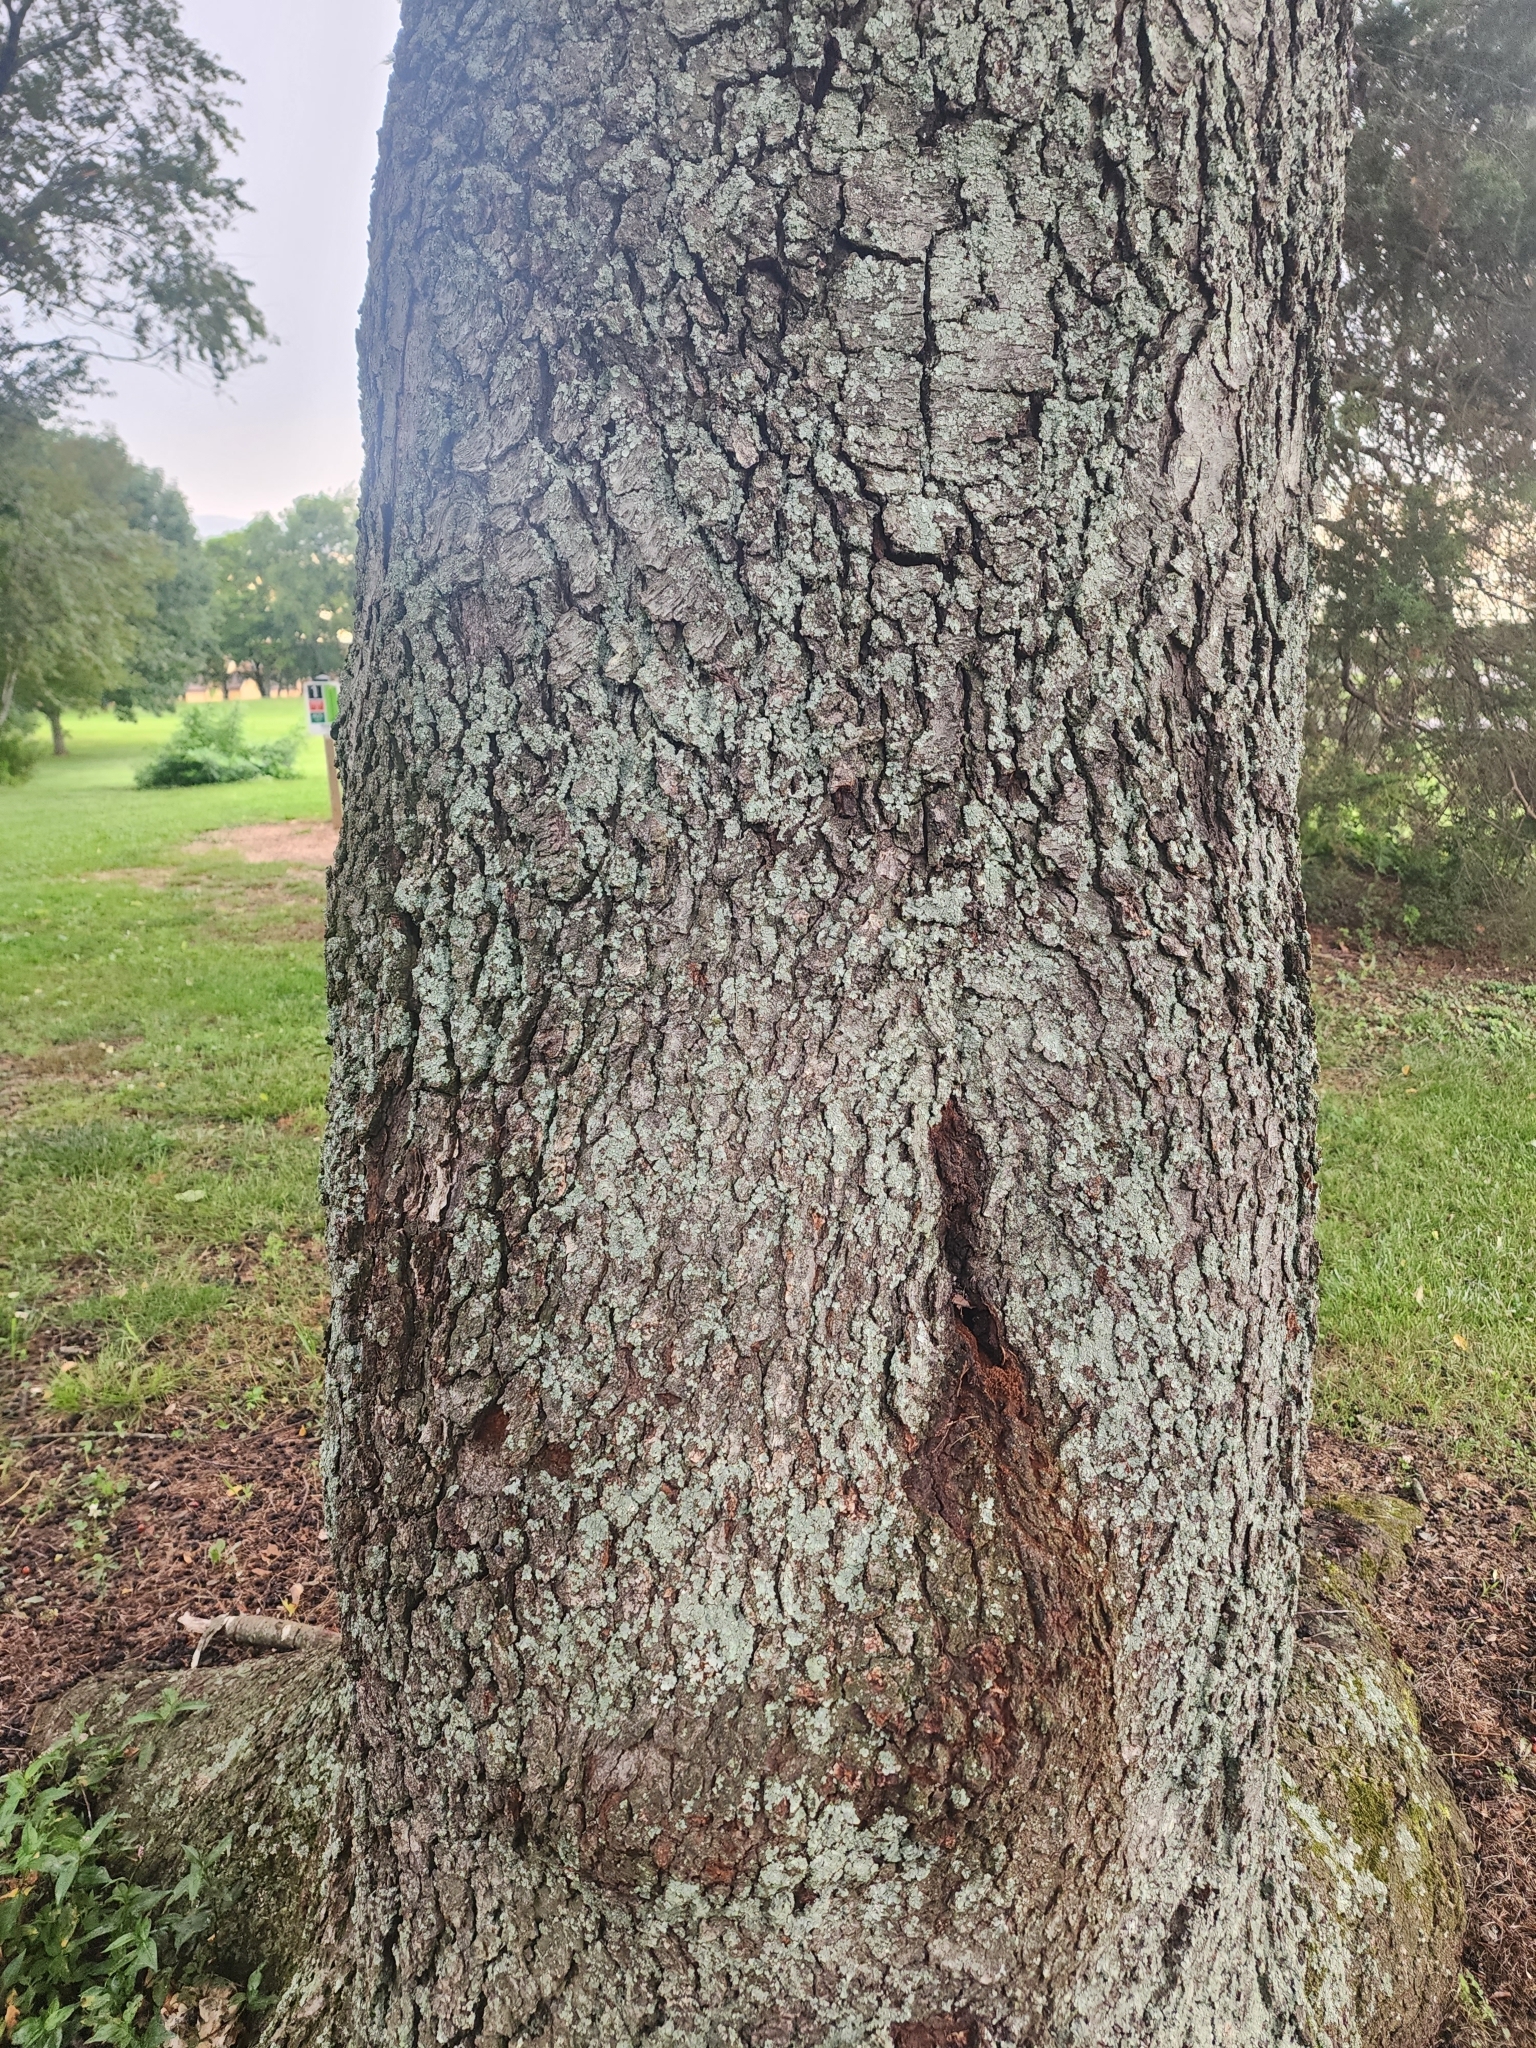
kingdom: Plantae
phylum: Tracheophyta
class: Magnoliopsida
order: Rosales
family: Rosaceae
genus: Prunus
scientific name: Prunus serotina
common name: Black cherry
